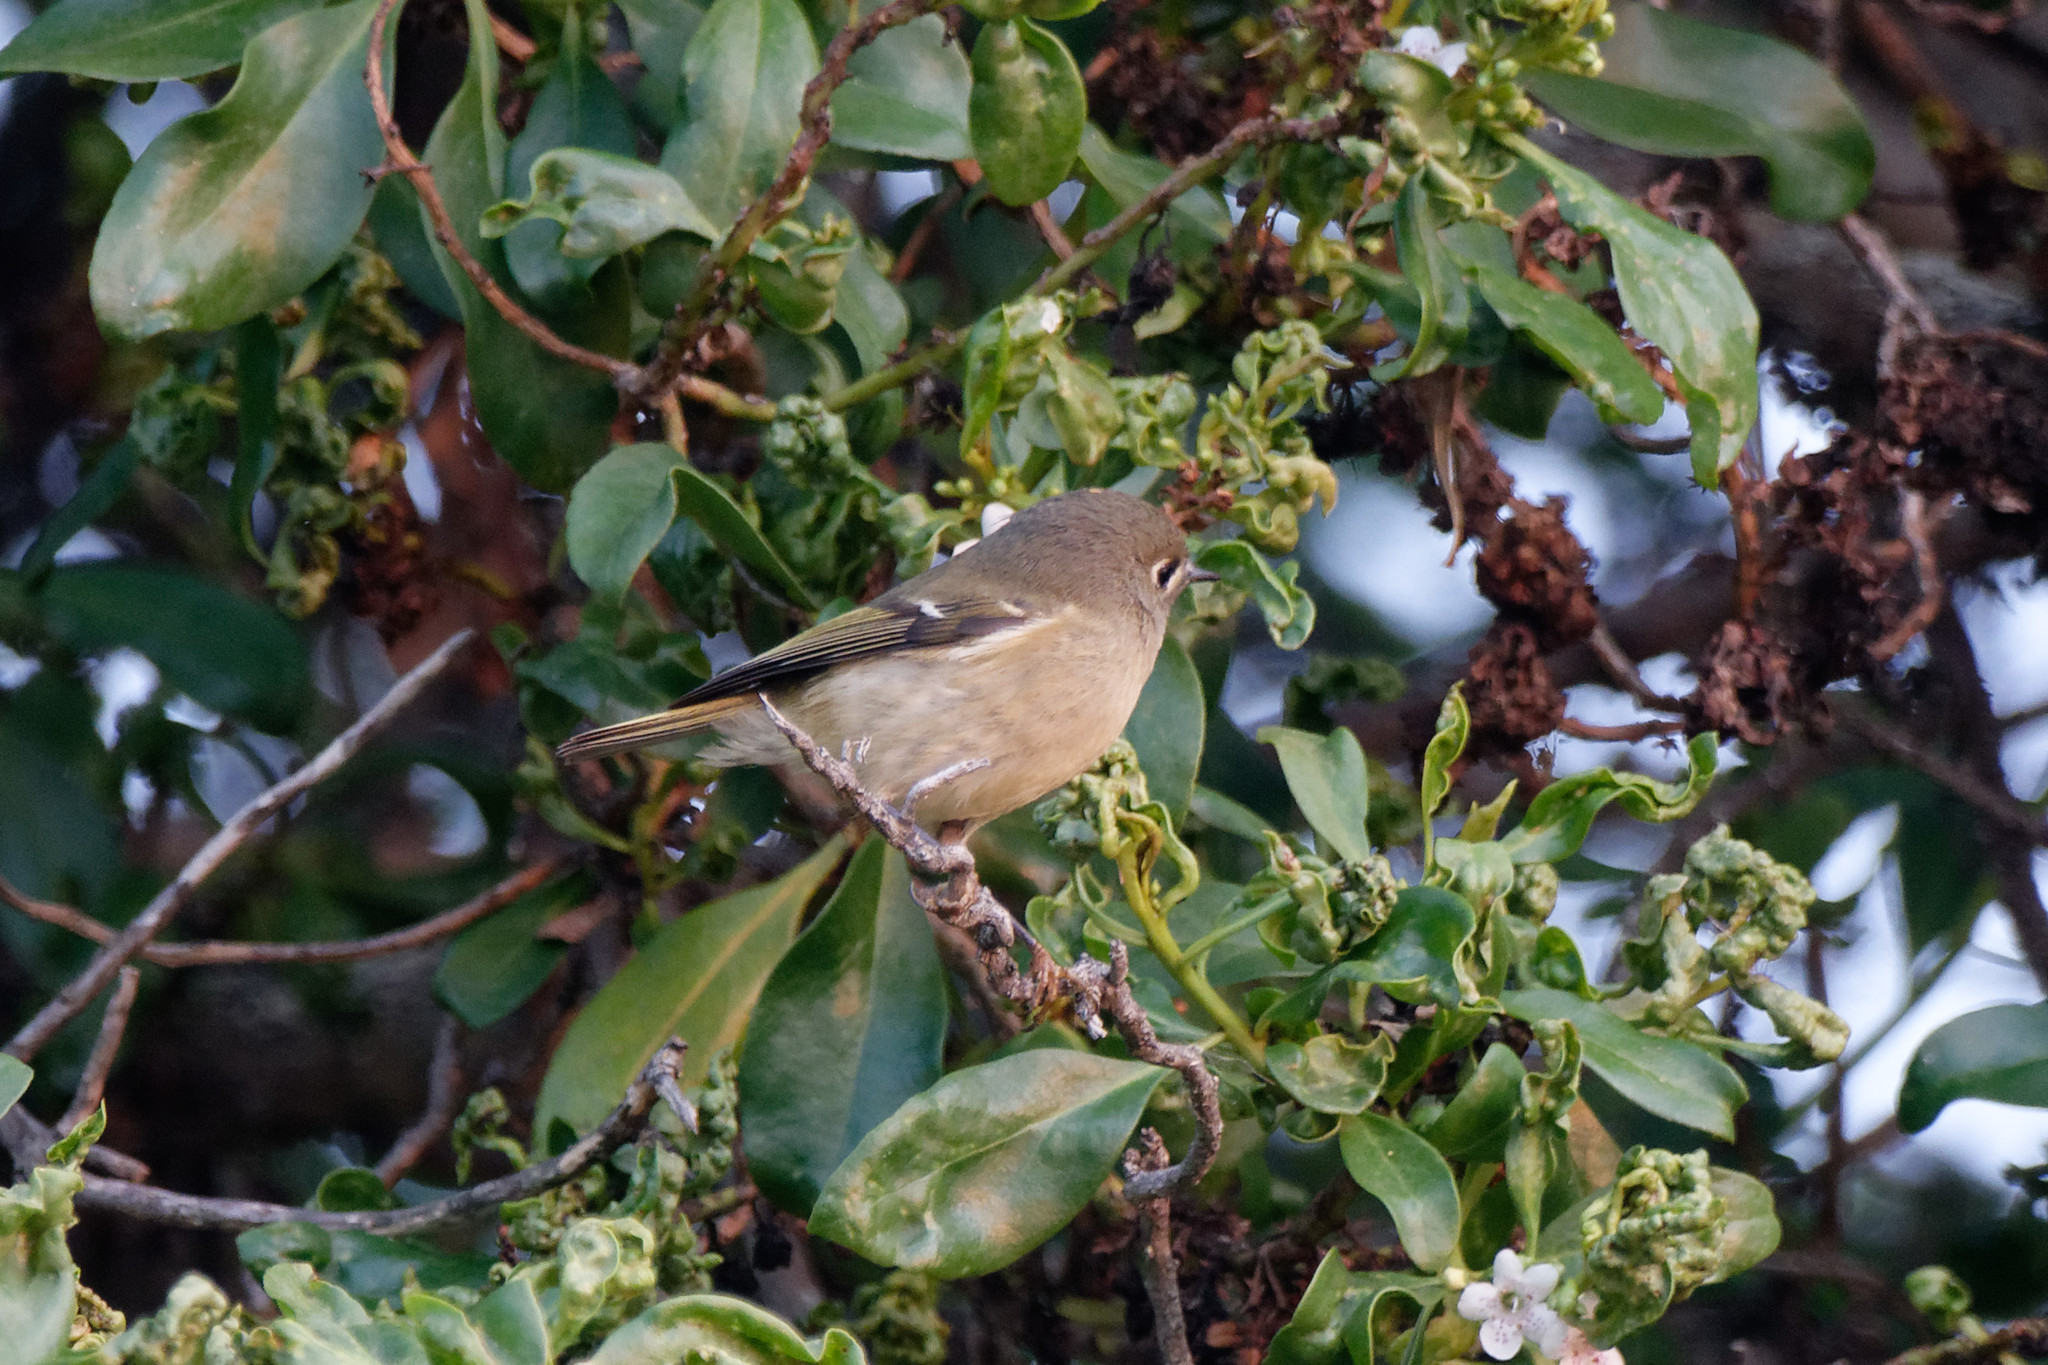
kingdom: Animalia
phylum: Chordata
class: Aves
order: Passeriformes
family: Regulidae
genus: Regulus
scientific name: Regulus calendula
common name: Ruby-crowned kinglet
